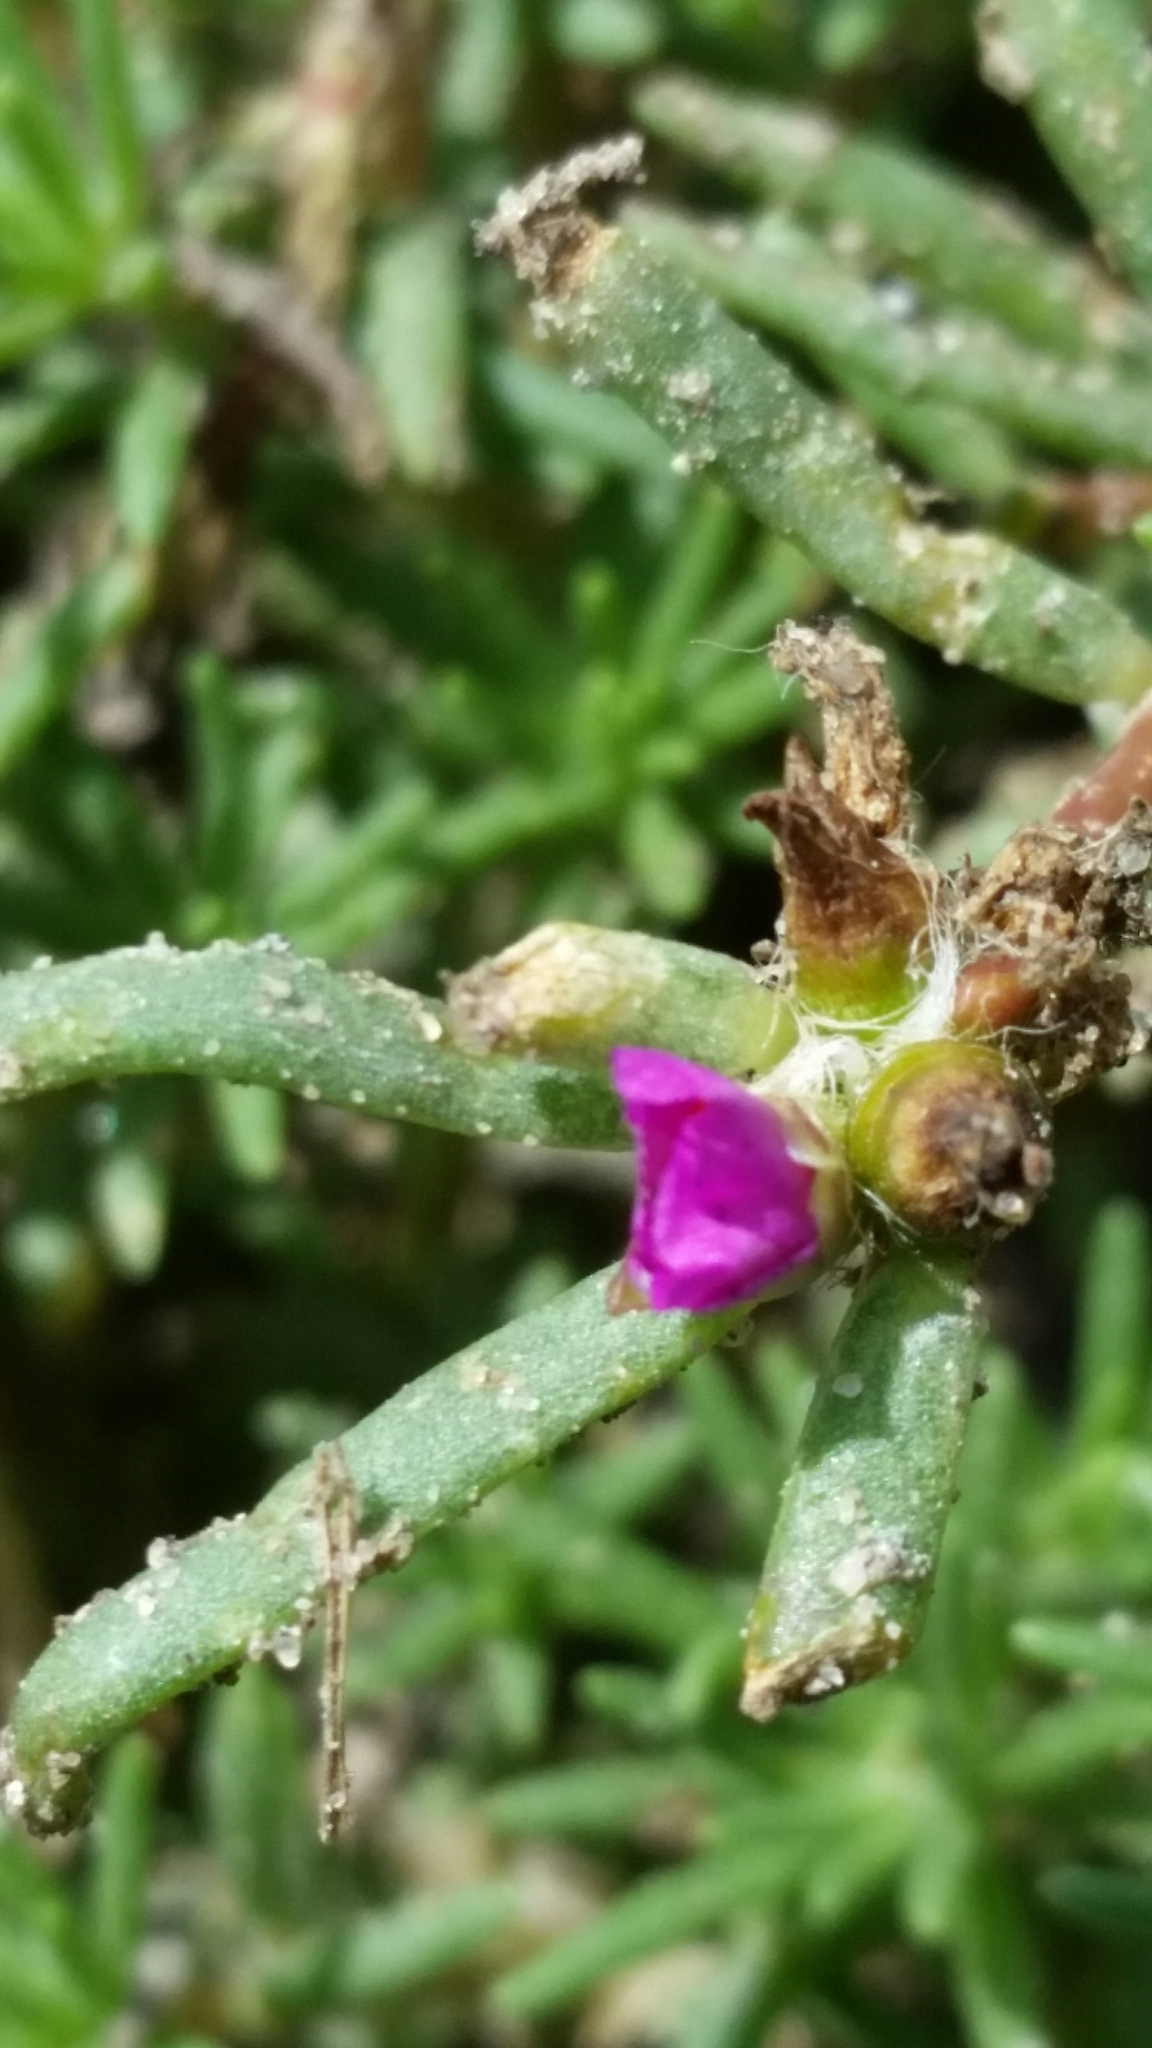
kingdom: Plantae
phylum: Tracheophyta
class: Magnoliopsida
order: Caryophyllales
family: Aizoaceae
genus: Trianthema
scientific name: Trianthema portulacastrum
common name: Desert horsepurslane
